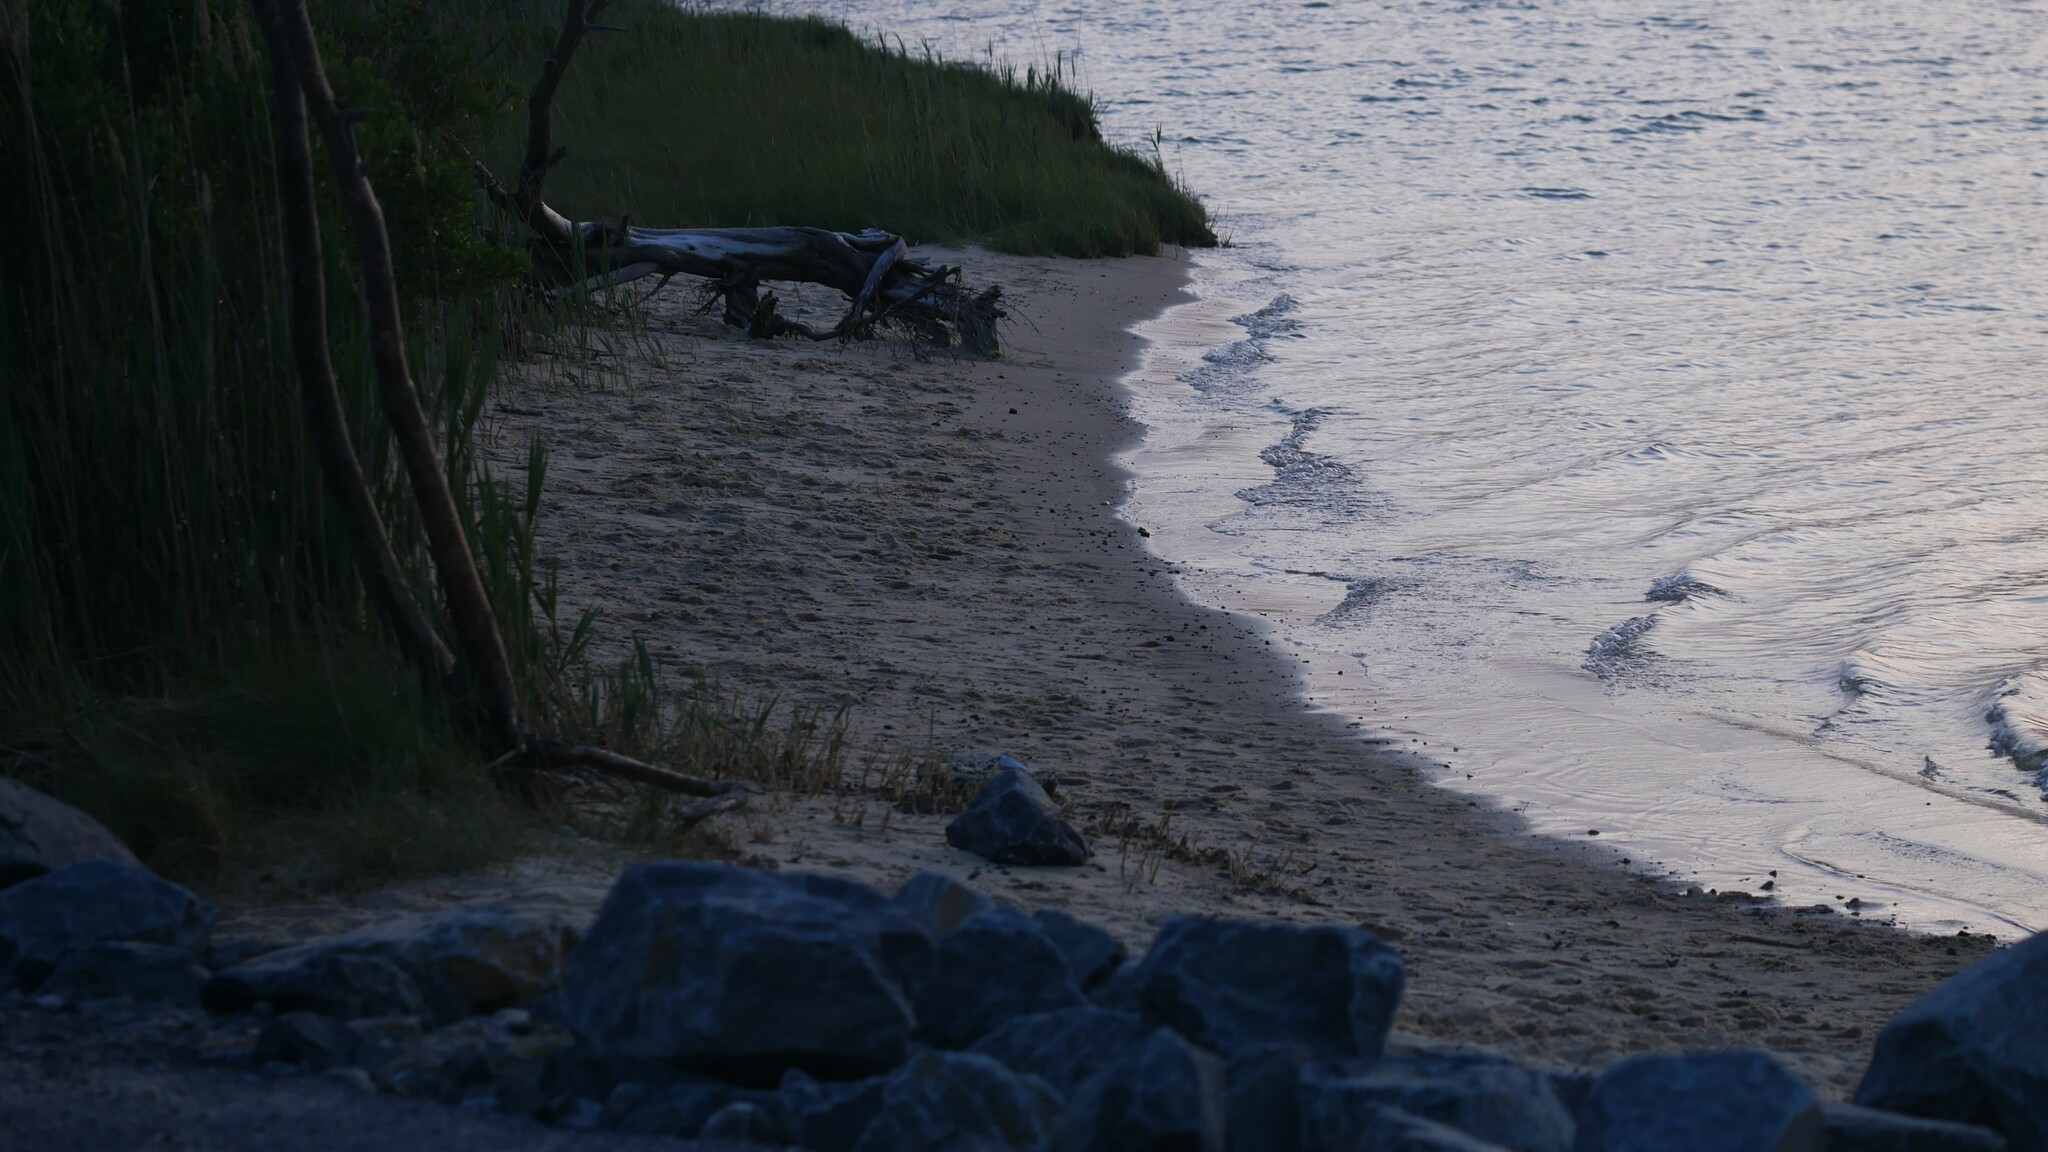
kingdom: Animalia
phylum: Arthropoda
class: Malacostraca
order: Isopoda
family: Scyphacidae
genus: Scyphacella
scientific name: Scyphacella arenicola
